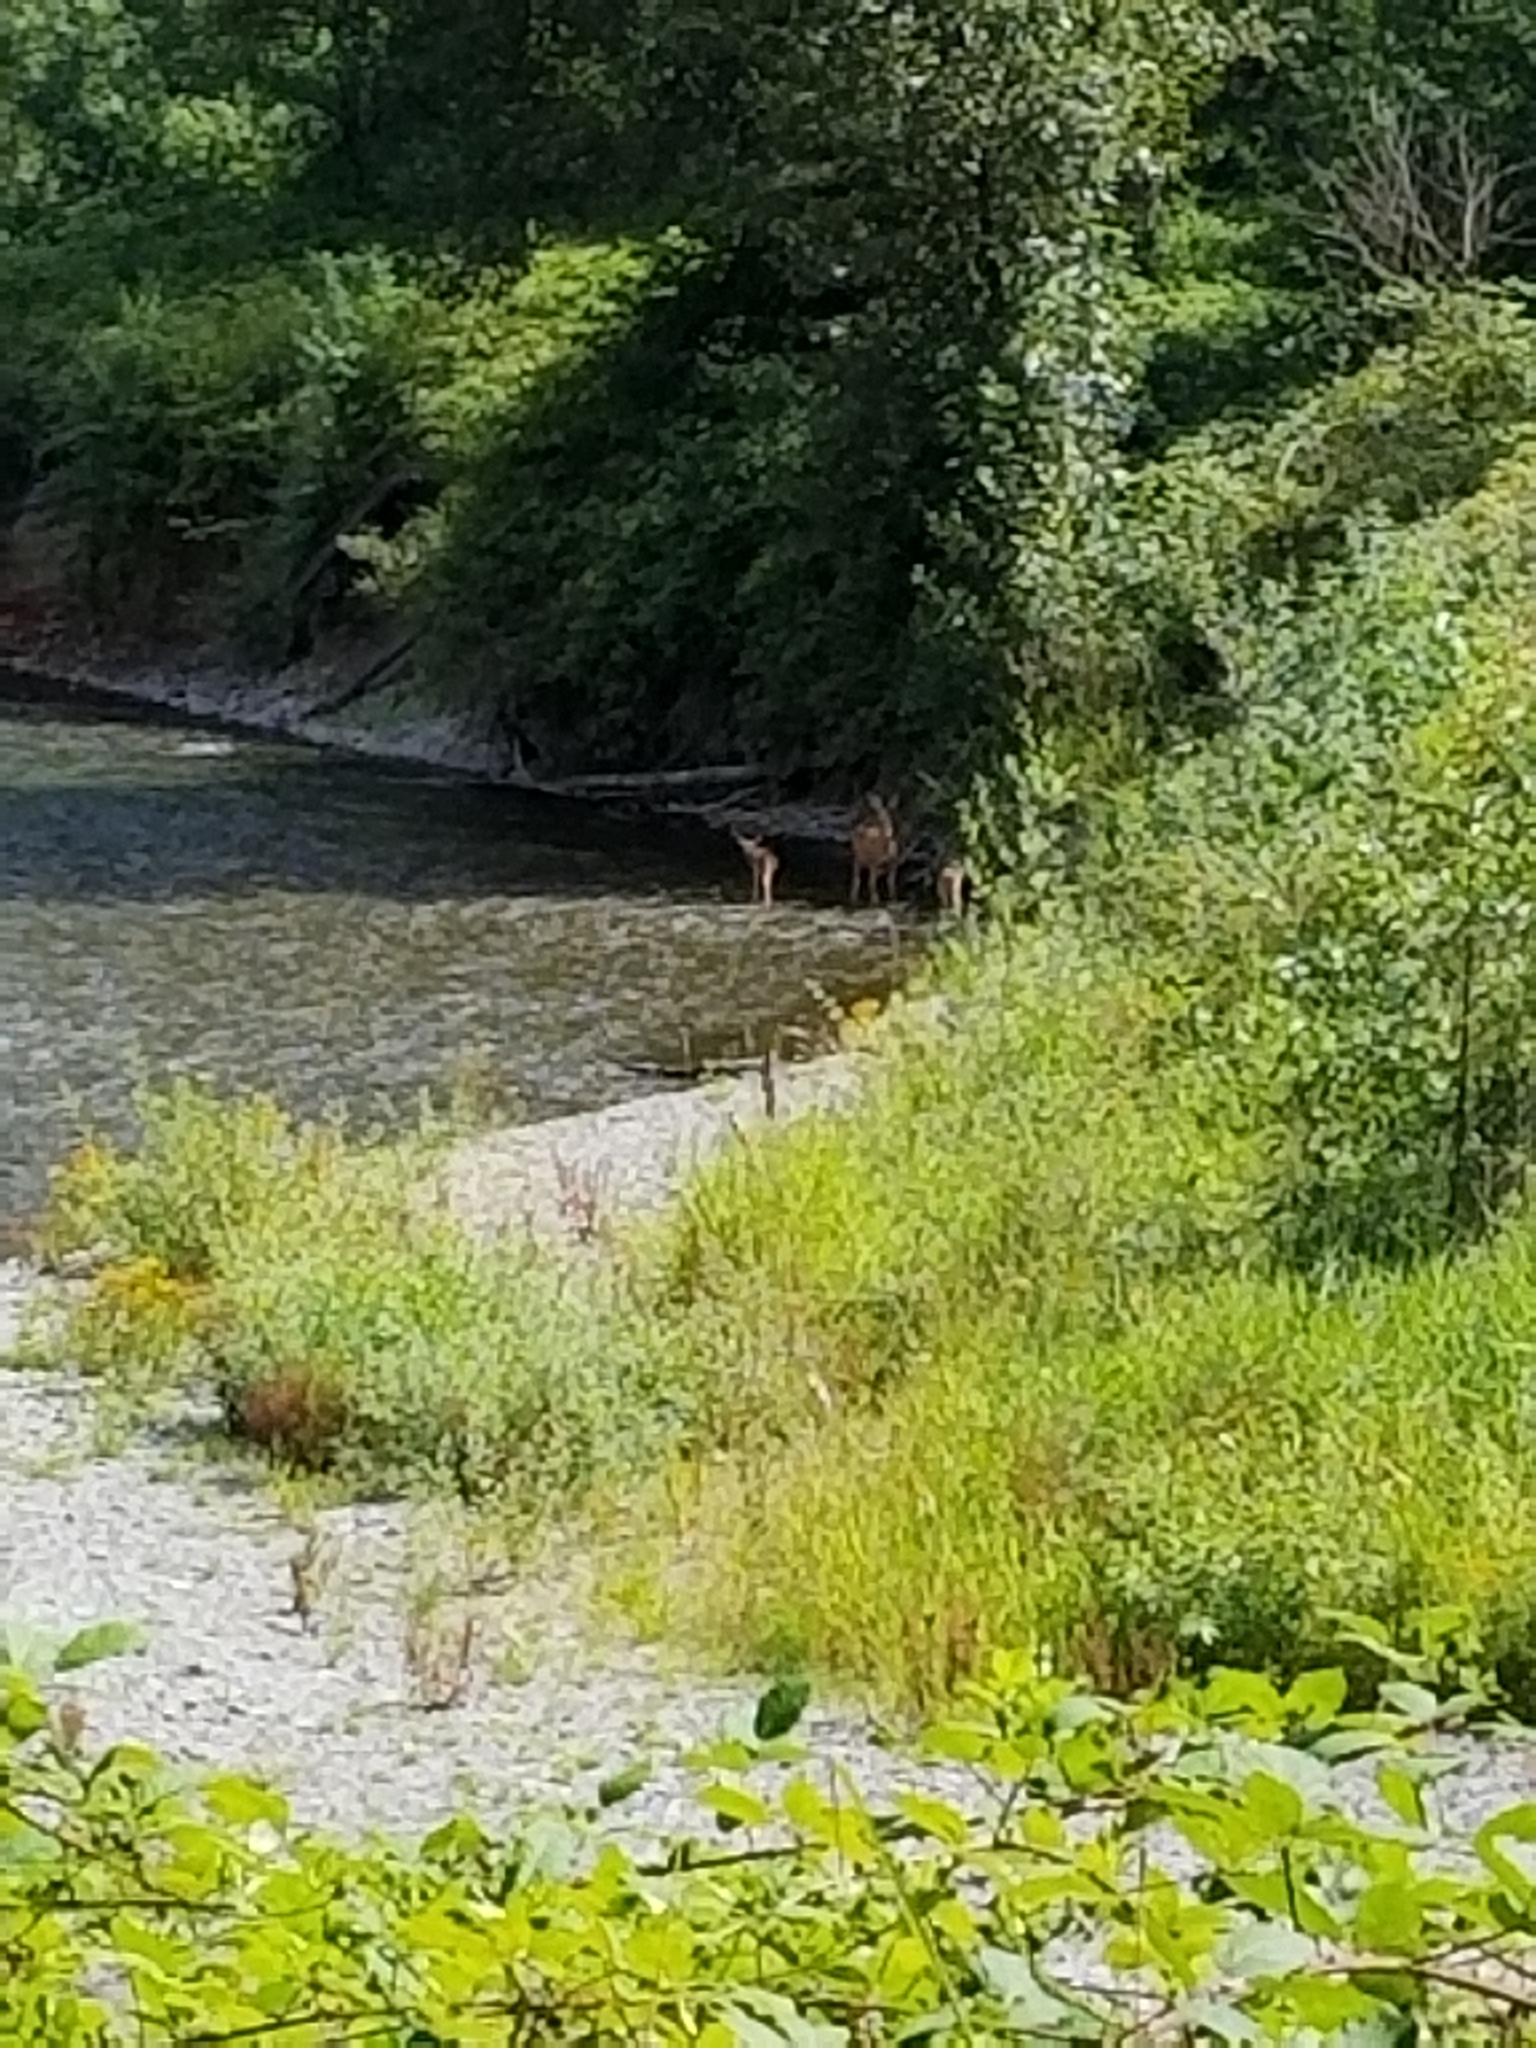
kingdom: Animalia
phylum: Chordata
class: Mammalia
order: Artiodactyla
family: Cervidae
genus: Odocoileus
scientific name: Odocoileus hemionus
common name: Mule deer
